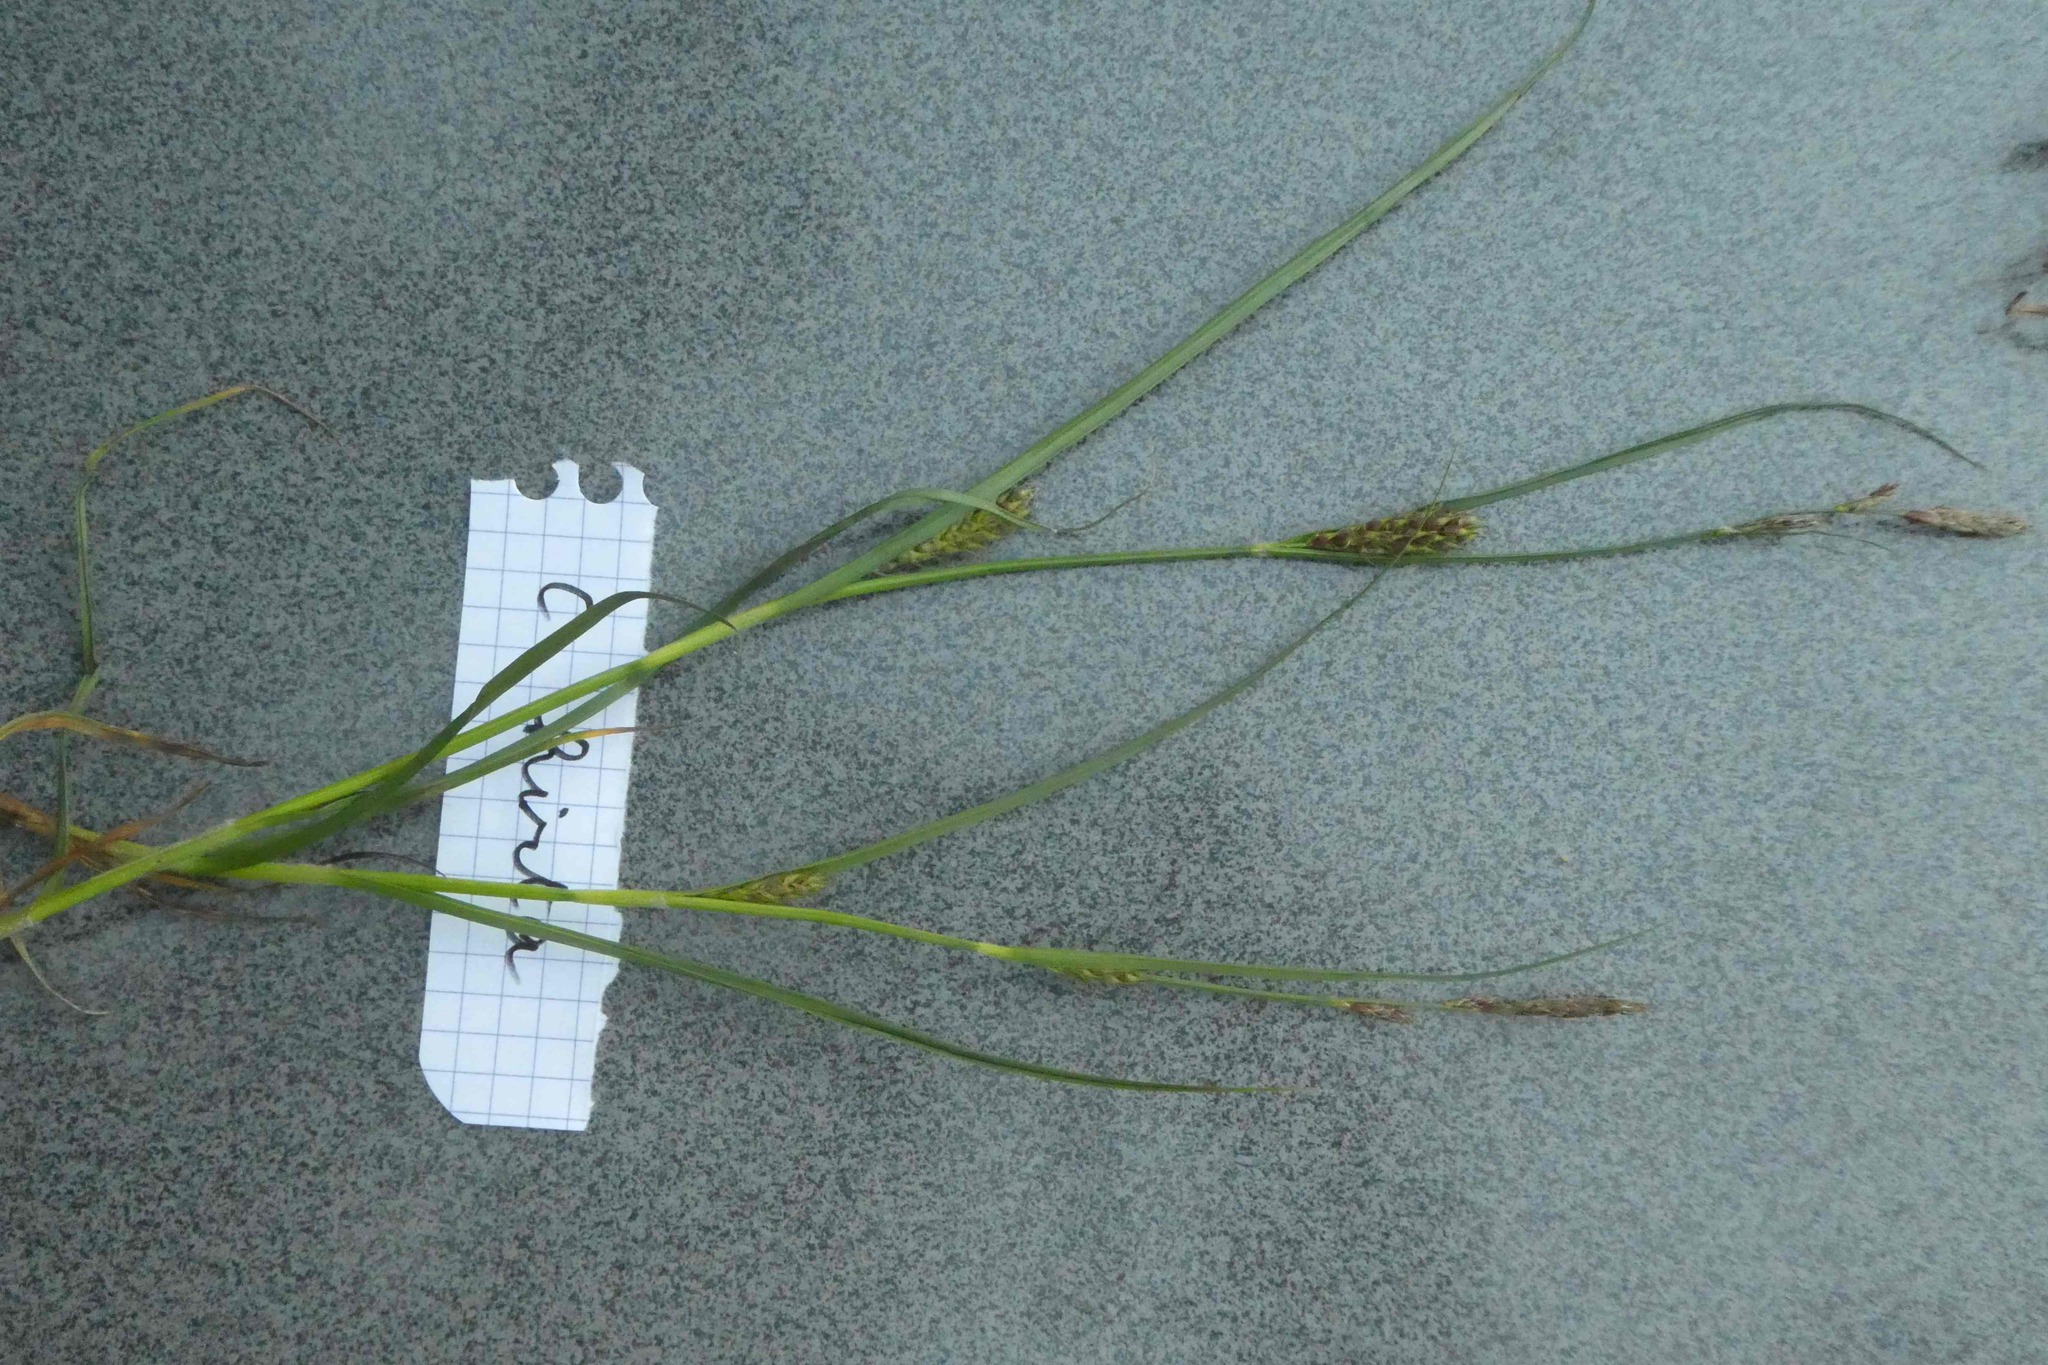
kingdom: Plantae
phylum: Tracheophyta
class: Liliopsida
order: Poales
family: Cyperaceae
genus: Carex
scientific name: Carex hirta
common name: Hairy sedge
